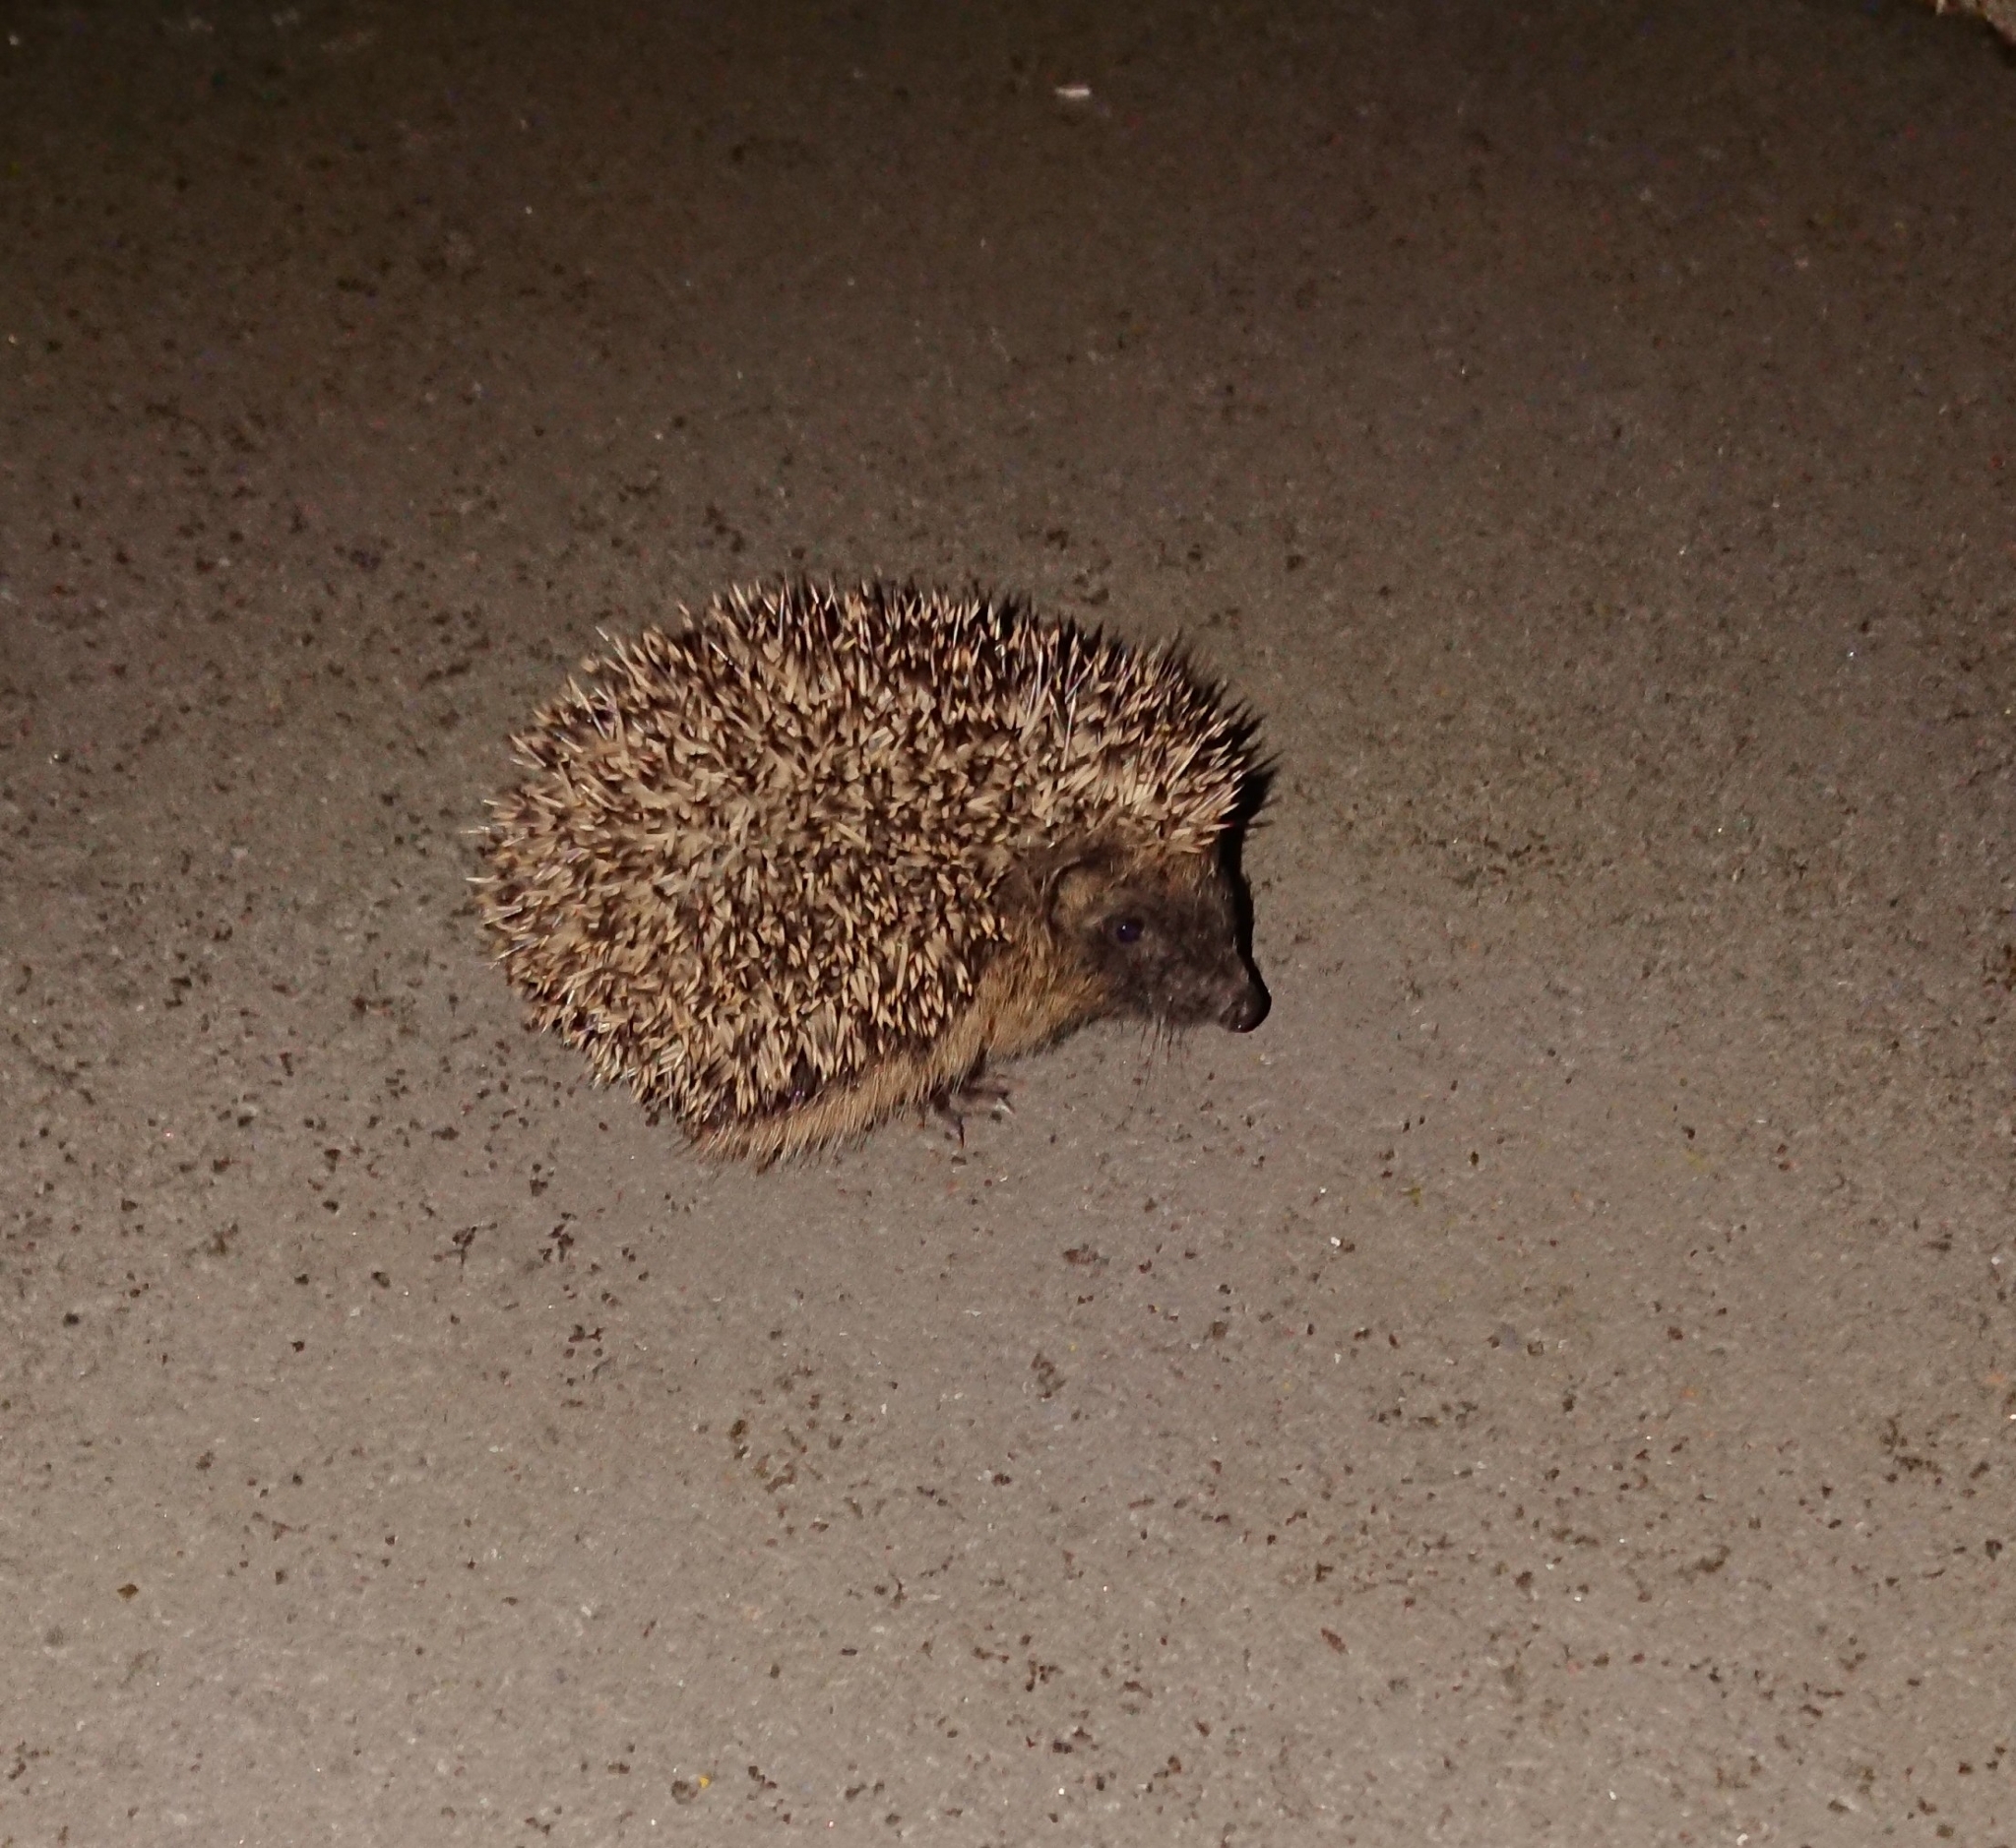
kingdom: Animalia
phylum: Chordata
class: Mammalia
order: Erinaceomorpha
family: Erinaceidae
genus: Erinaceus
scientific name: Erinaceus europaeus
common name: West european hedgehog
